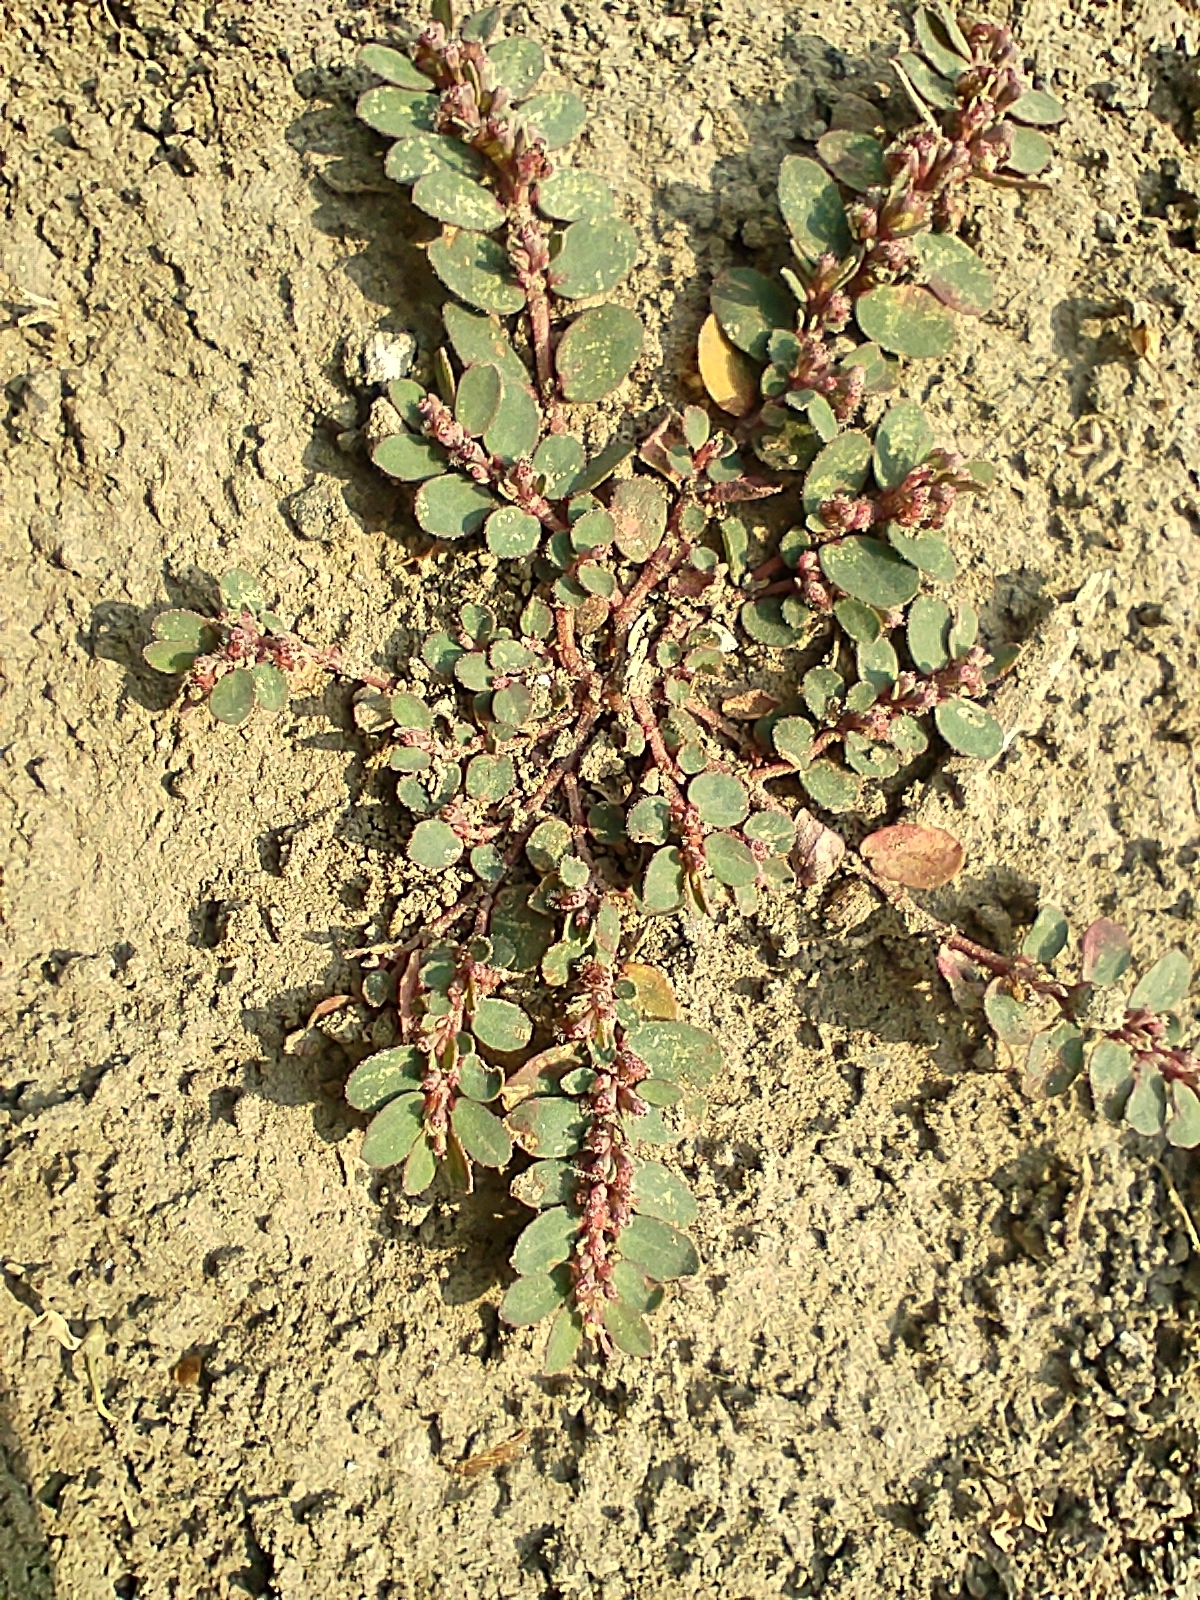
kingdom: Plantae
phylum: Tracheophyta
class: Magnoliopsida
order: Malpighiales
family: Euphorbiaceae
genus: Euphorbia
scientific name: Euphorbia prostrata
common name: Prostrate sandmat
